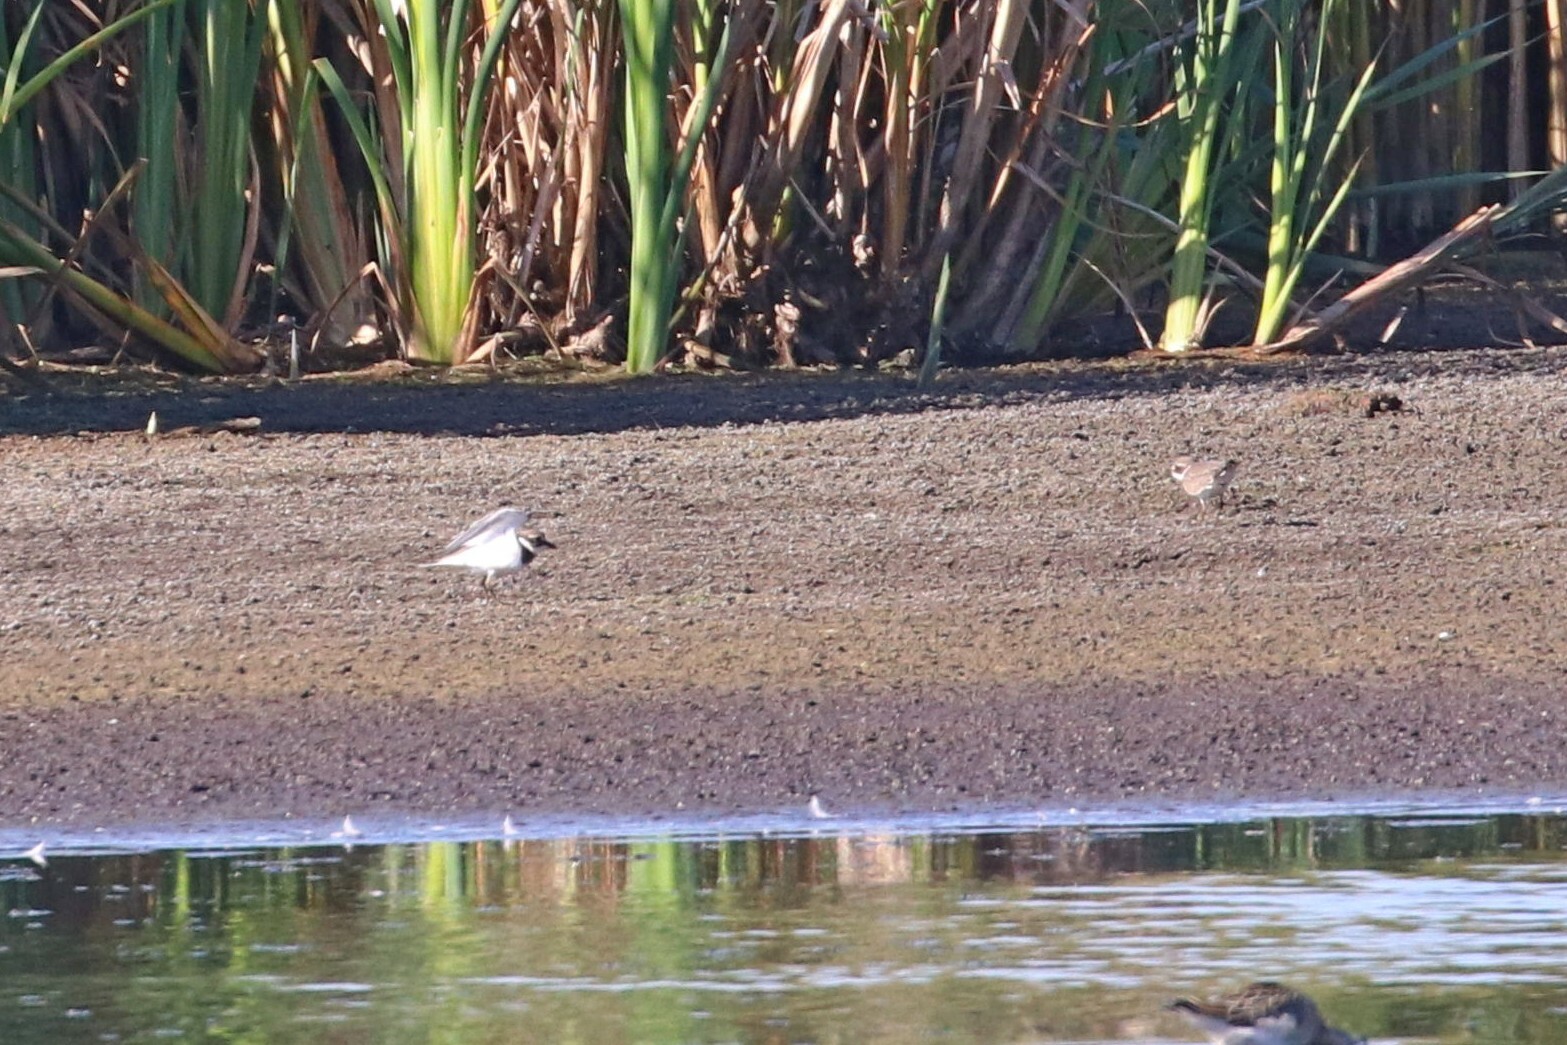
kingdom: Animalia
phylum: Chordata
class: Aves
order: Charadriiformes
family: Charadriidae
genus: Charadrius
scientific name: Charadrius hiaticula
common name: Common ringed plover
